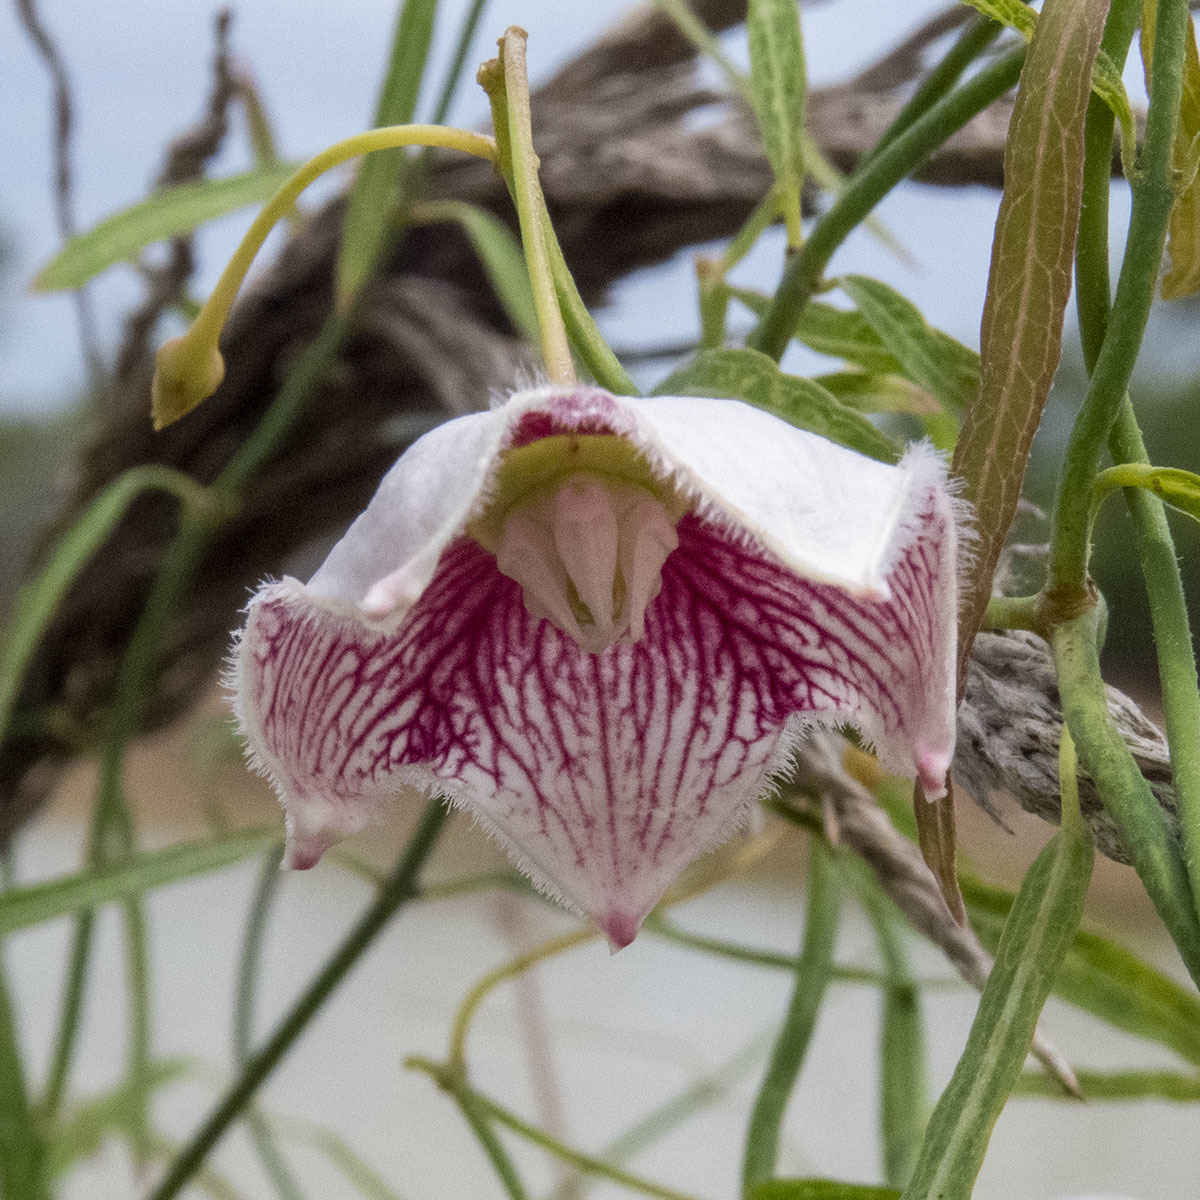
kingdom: Plantae
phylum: Tracheophyta
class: Magnoliopsida
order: Gentianales
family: Apocynaceae
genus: Oxystelma
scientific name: Oxystelma wallichii
